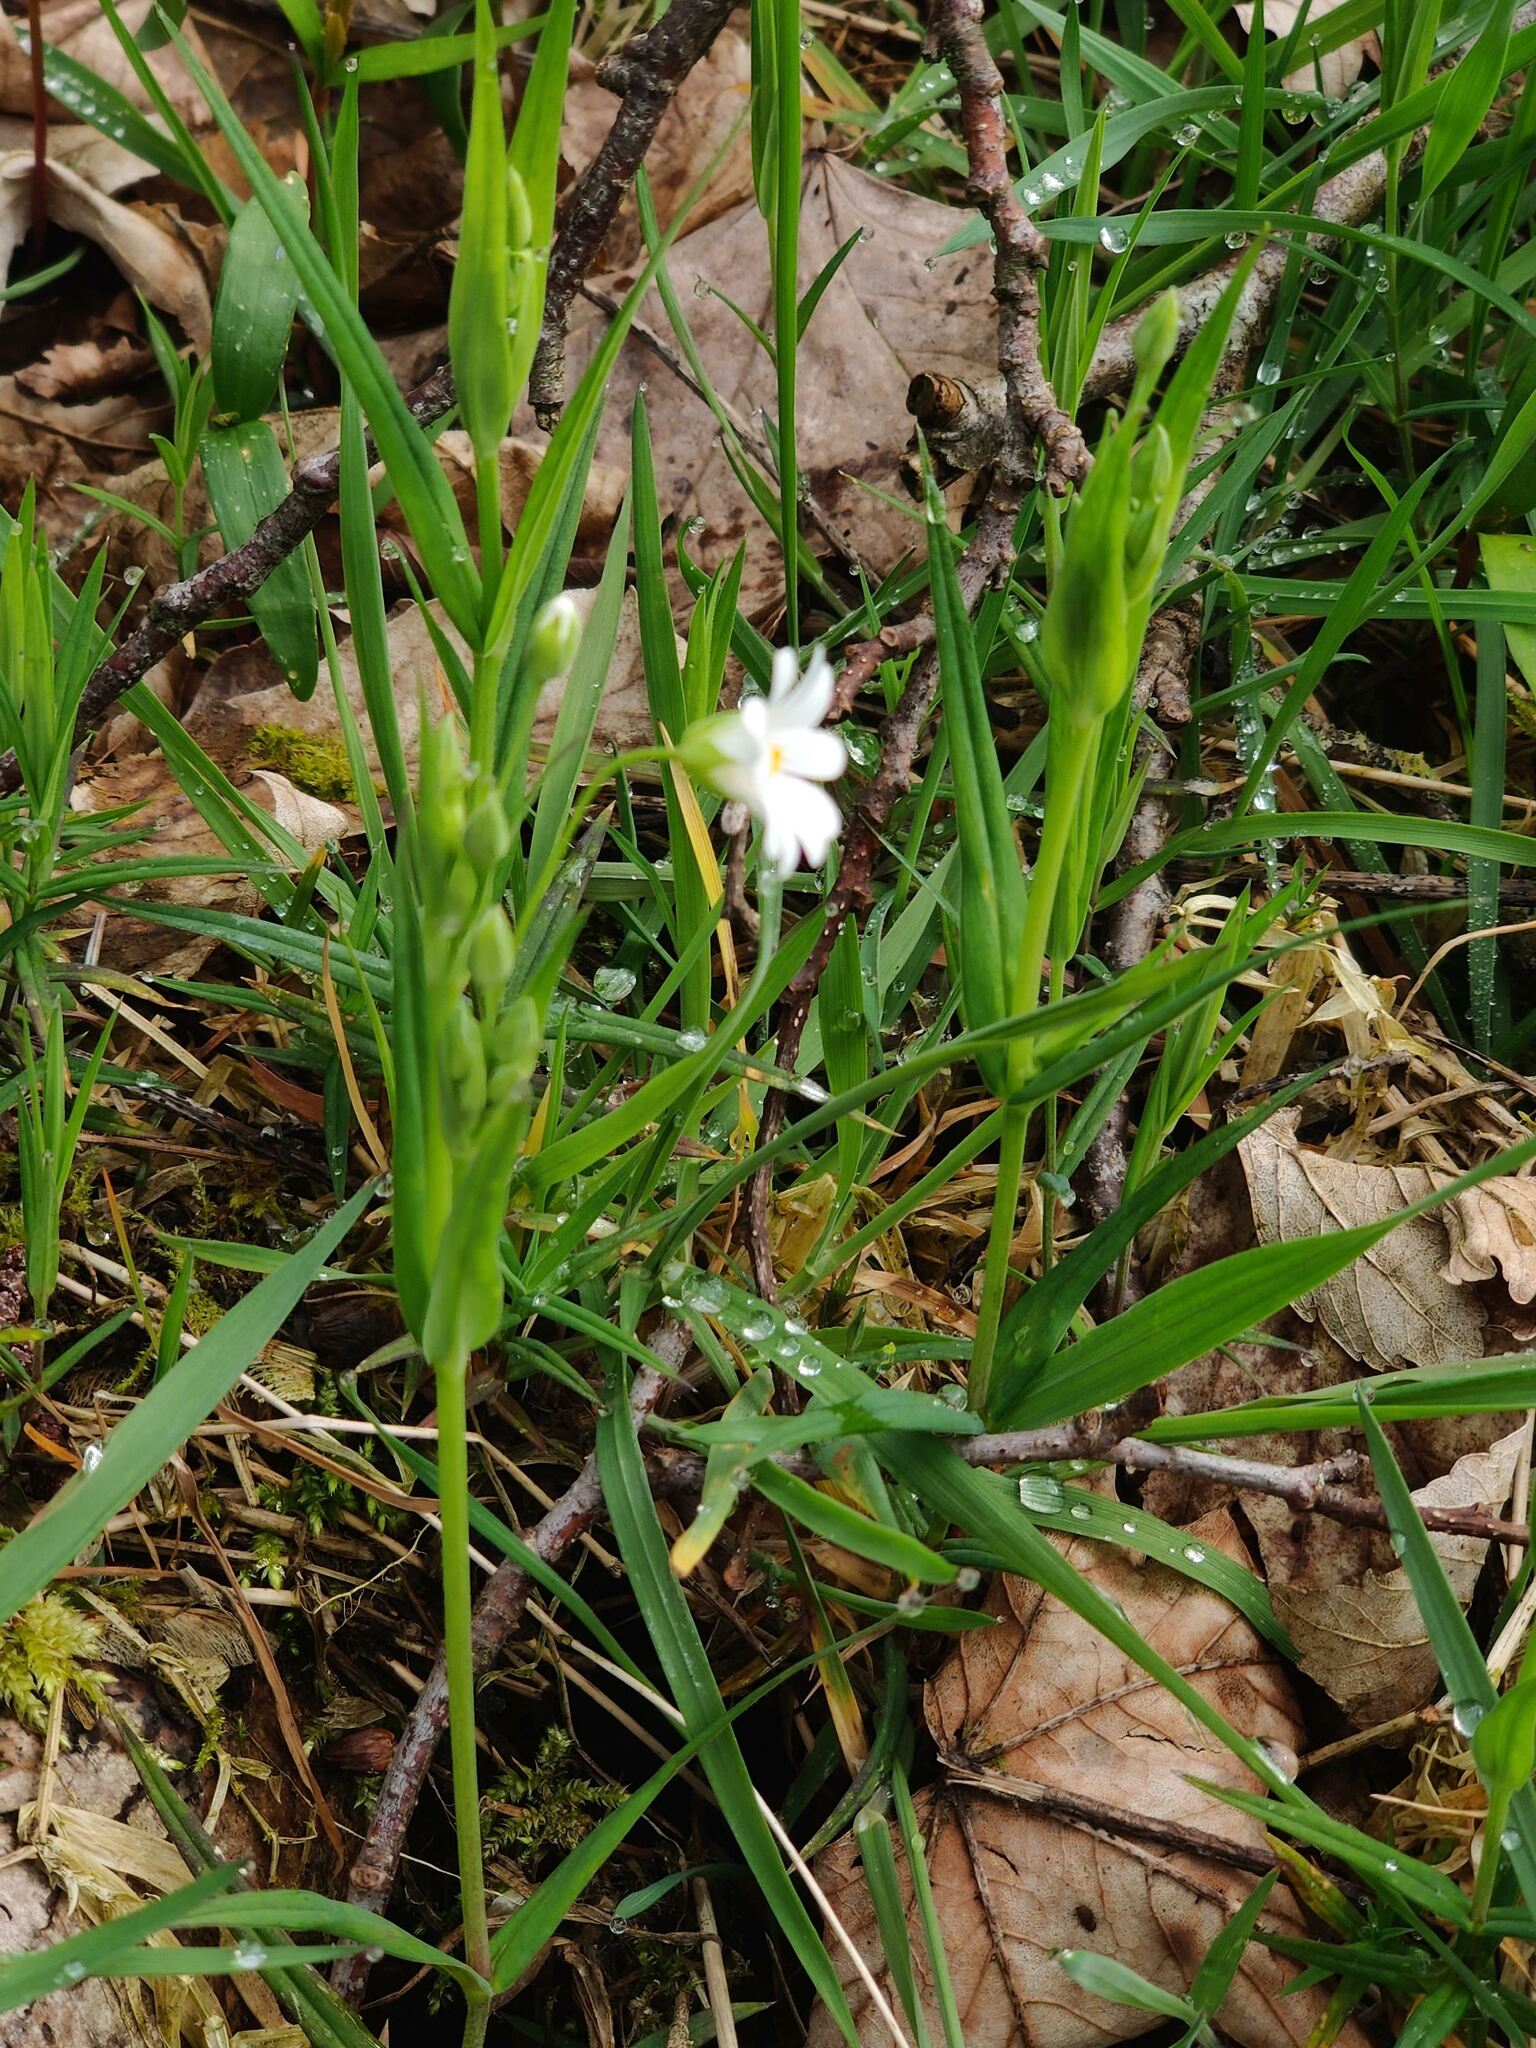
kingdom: Plantae
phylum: Tracheophyta
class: Magnoliopsida
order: Caryophyllales
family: Caryophyllaceae
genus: Rabelera
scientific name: Rabelera holostea
